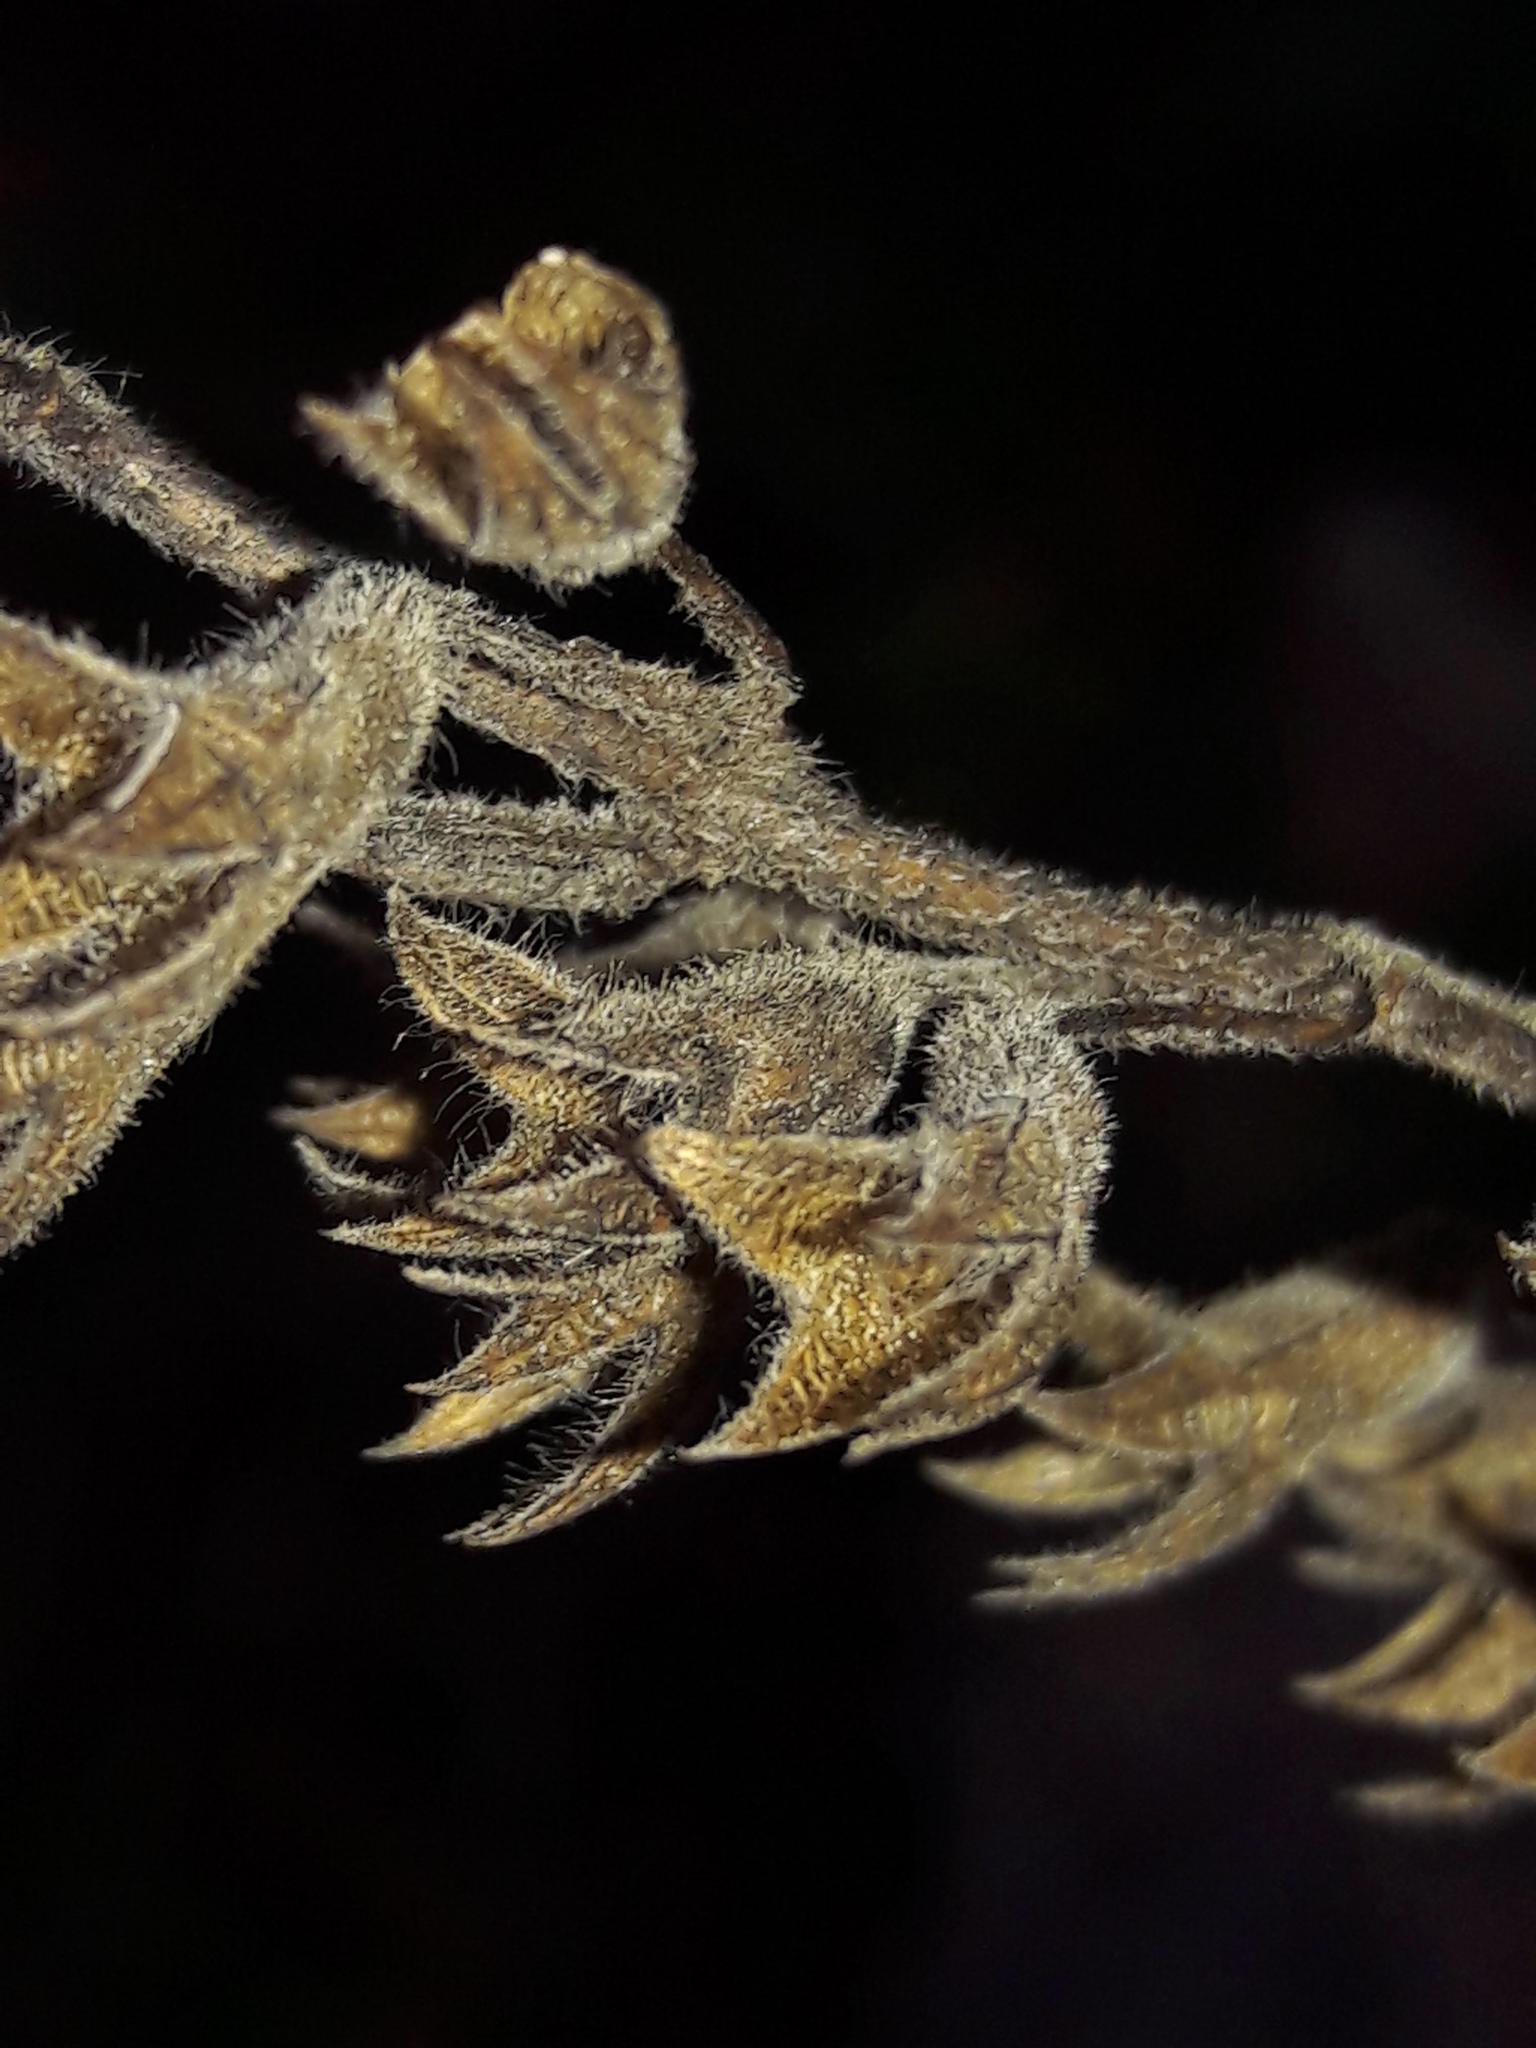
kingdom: Plantae
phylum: Tracheophyta
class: Magnoliopsida
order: Lamiales
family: Lamiaceae
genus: Teucrium
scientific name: Teucrium flavum
